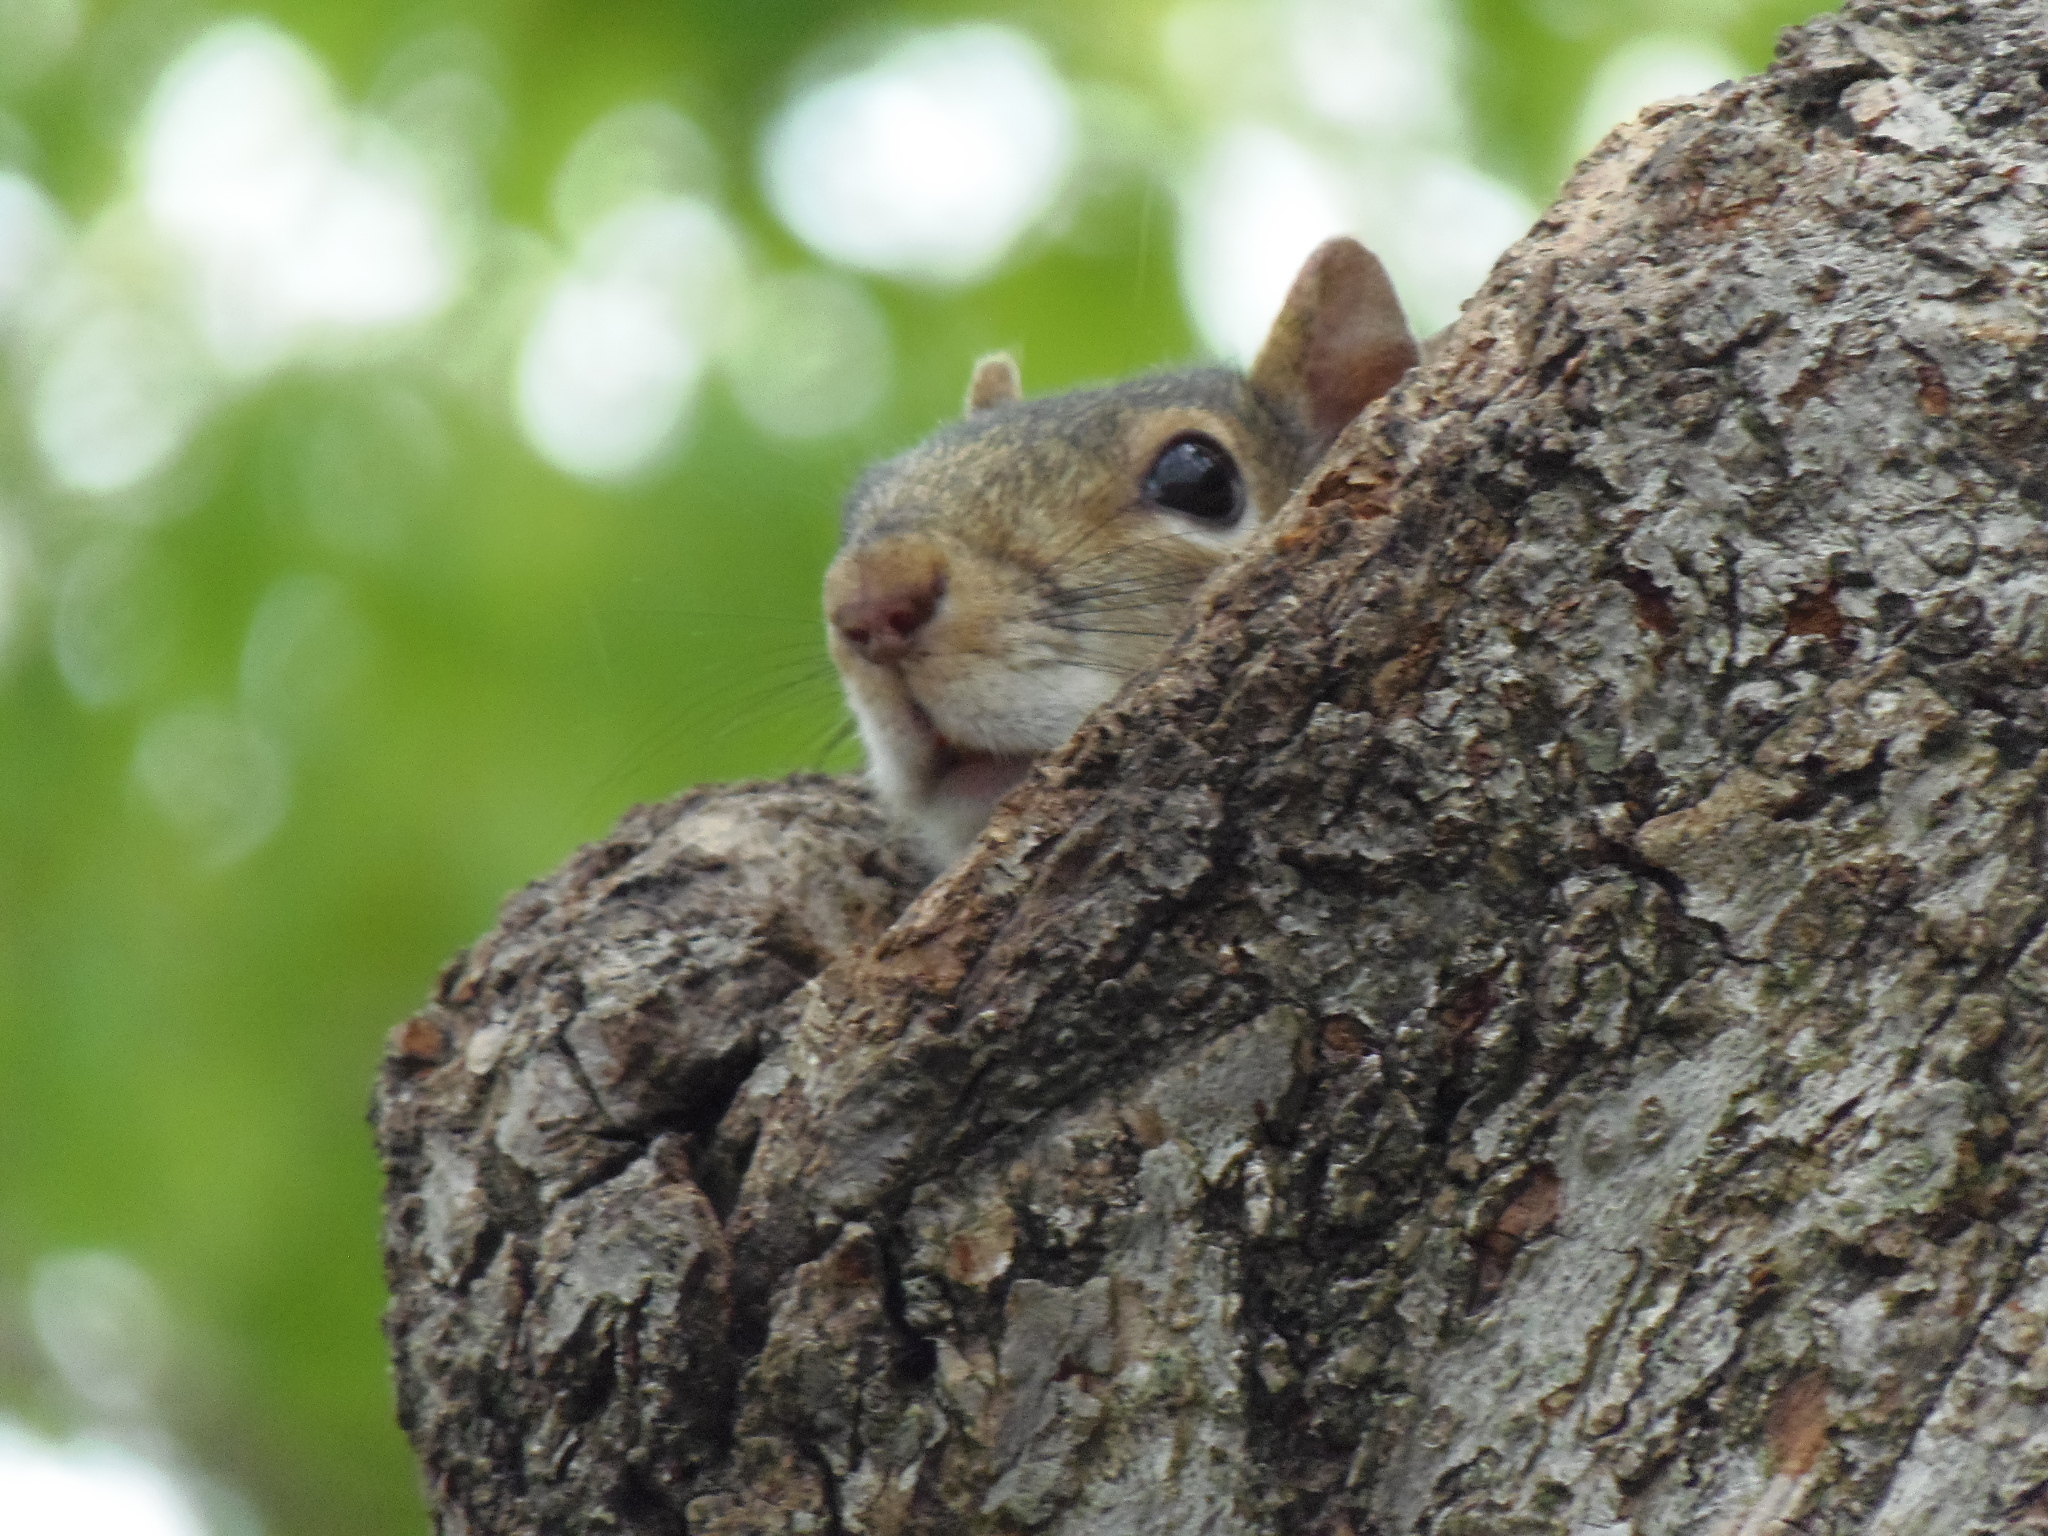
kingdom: Animalia
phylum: Chordata
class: Mammalia
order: Rodentia
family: Sciuridae
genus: Sciurus
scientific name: Sciurus carolinensis
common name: Eastern gray squirrel
